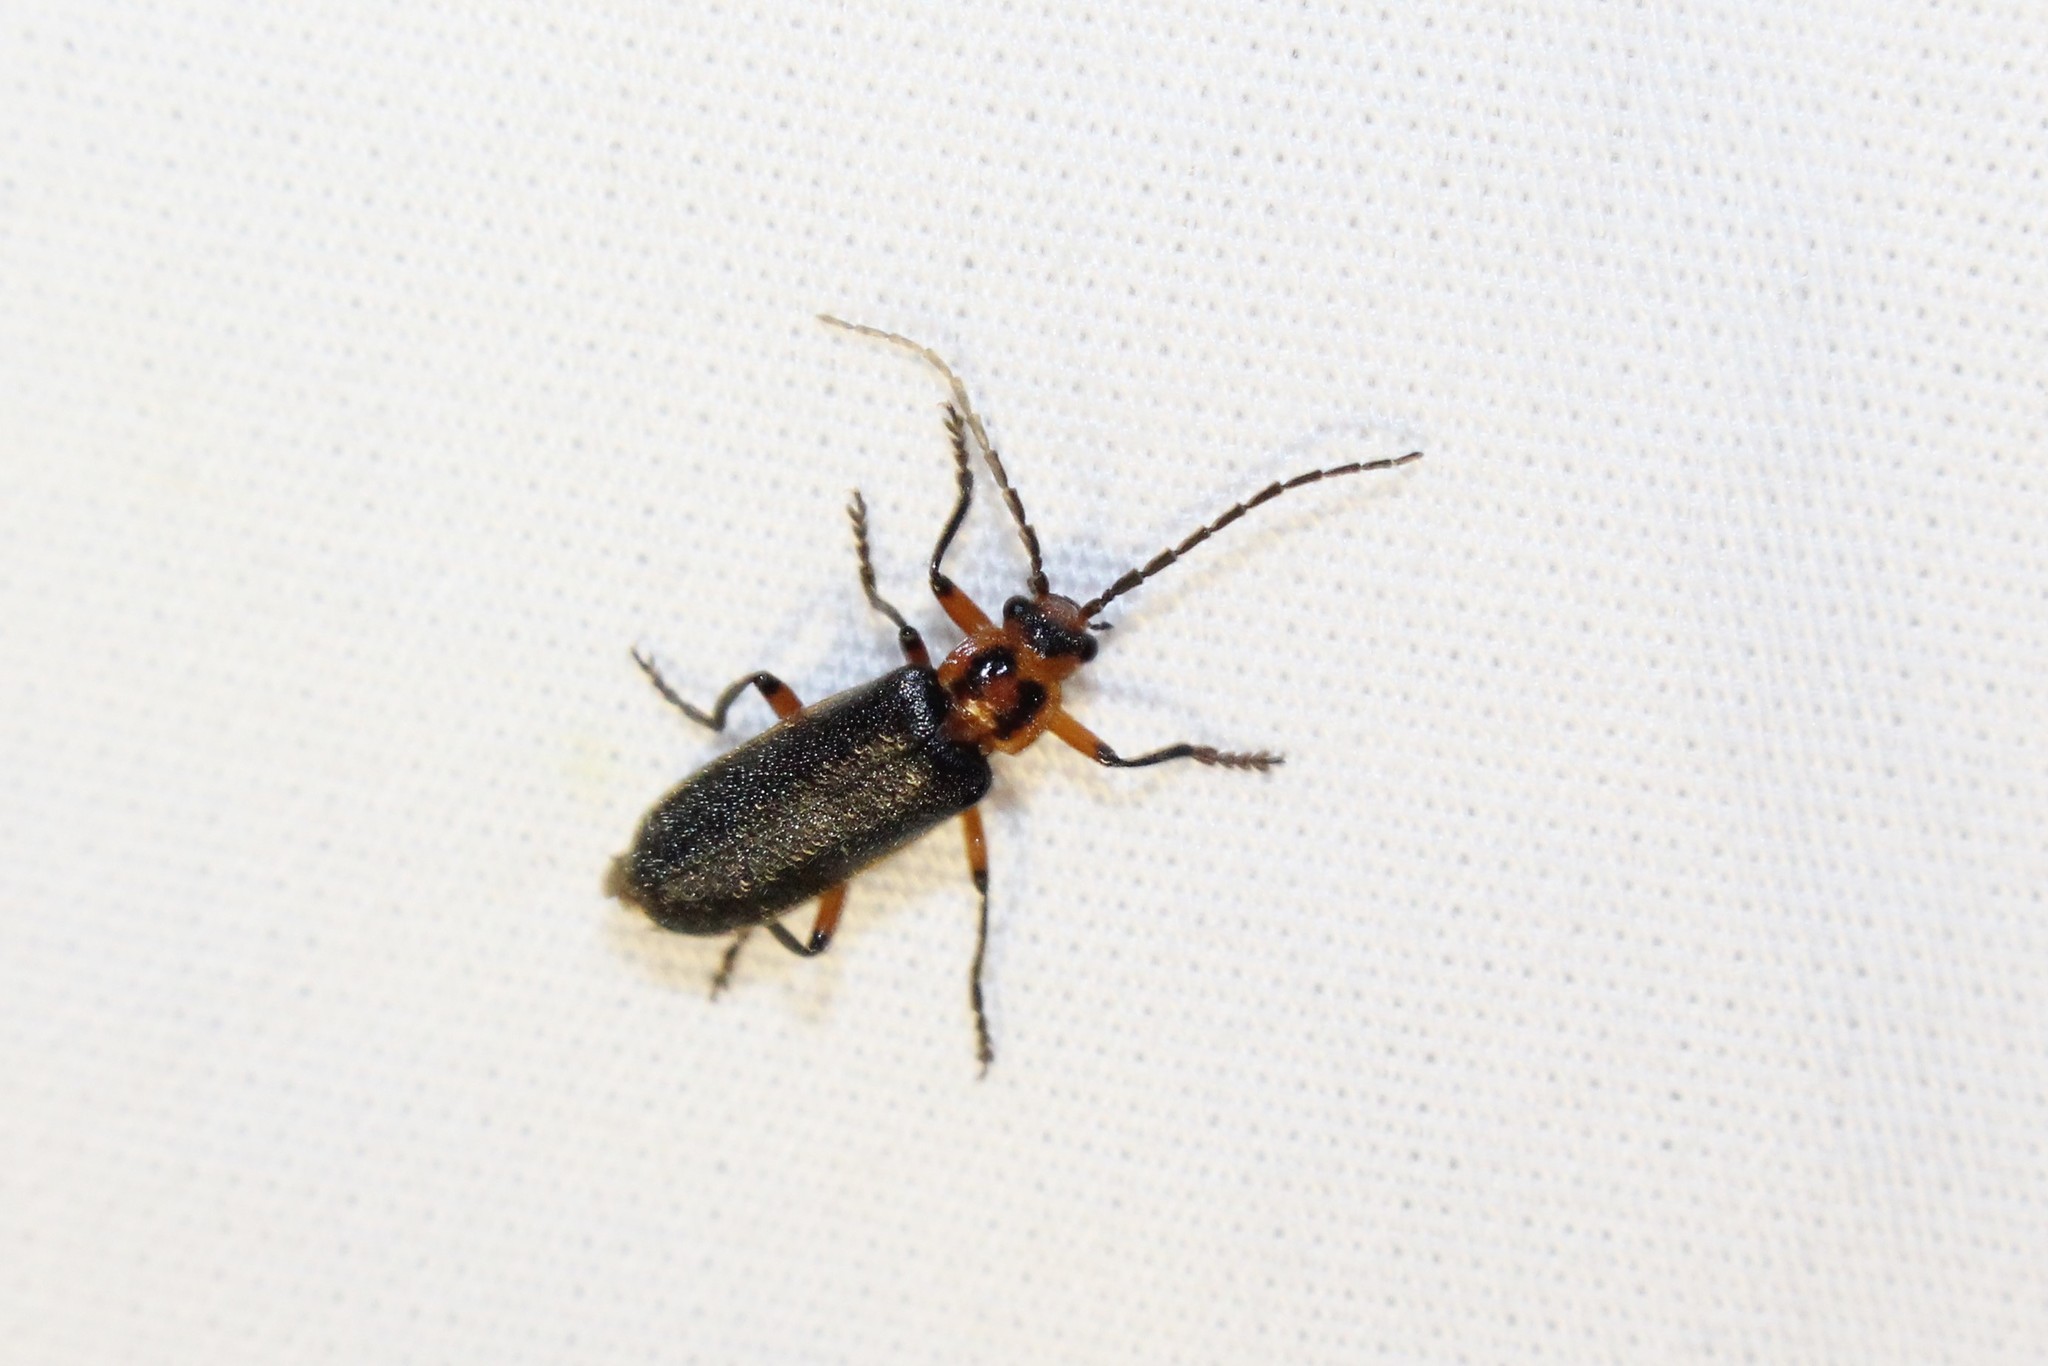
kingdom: Animalia
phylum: Arthropoda
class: Insecta
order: Coleoptera
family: Cantharidae
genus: Atalantycha
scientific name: Atalantycha bilineata
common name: Two-lined leatherwing
